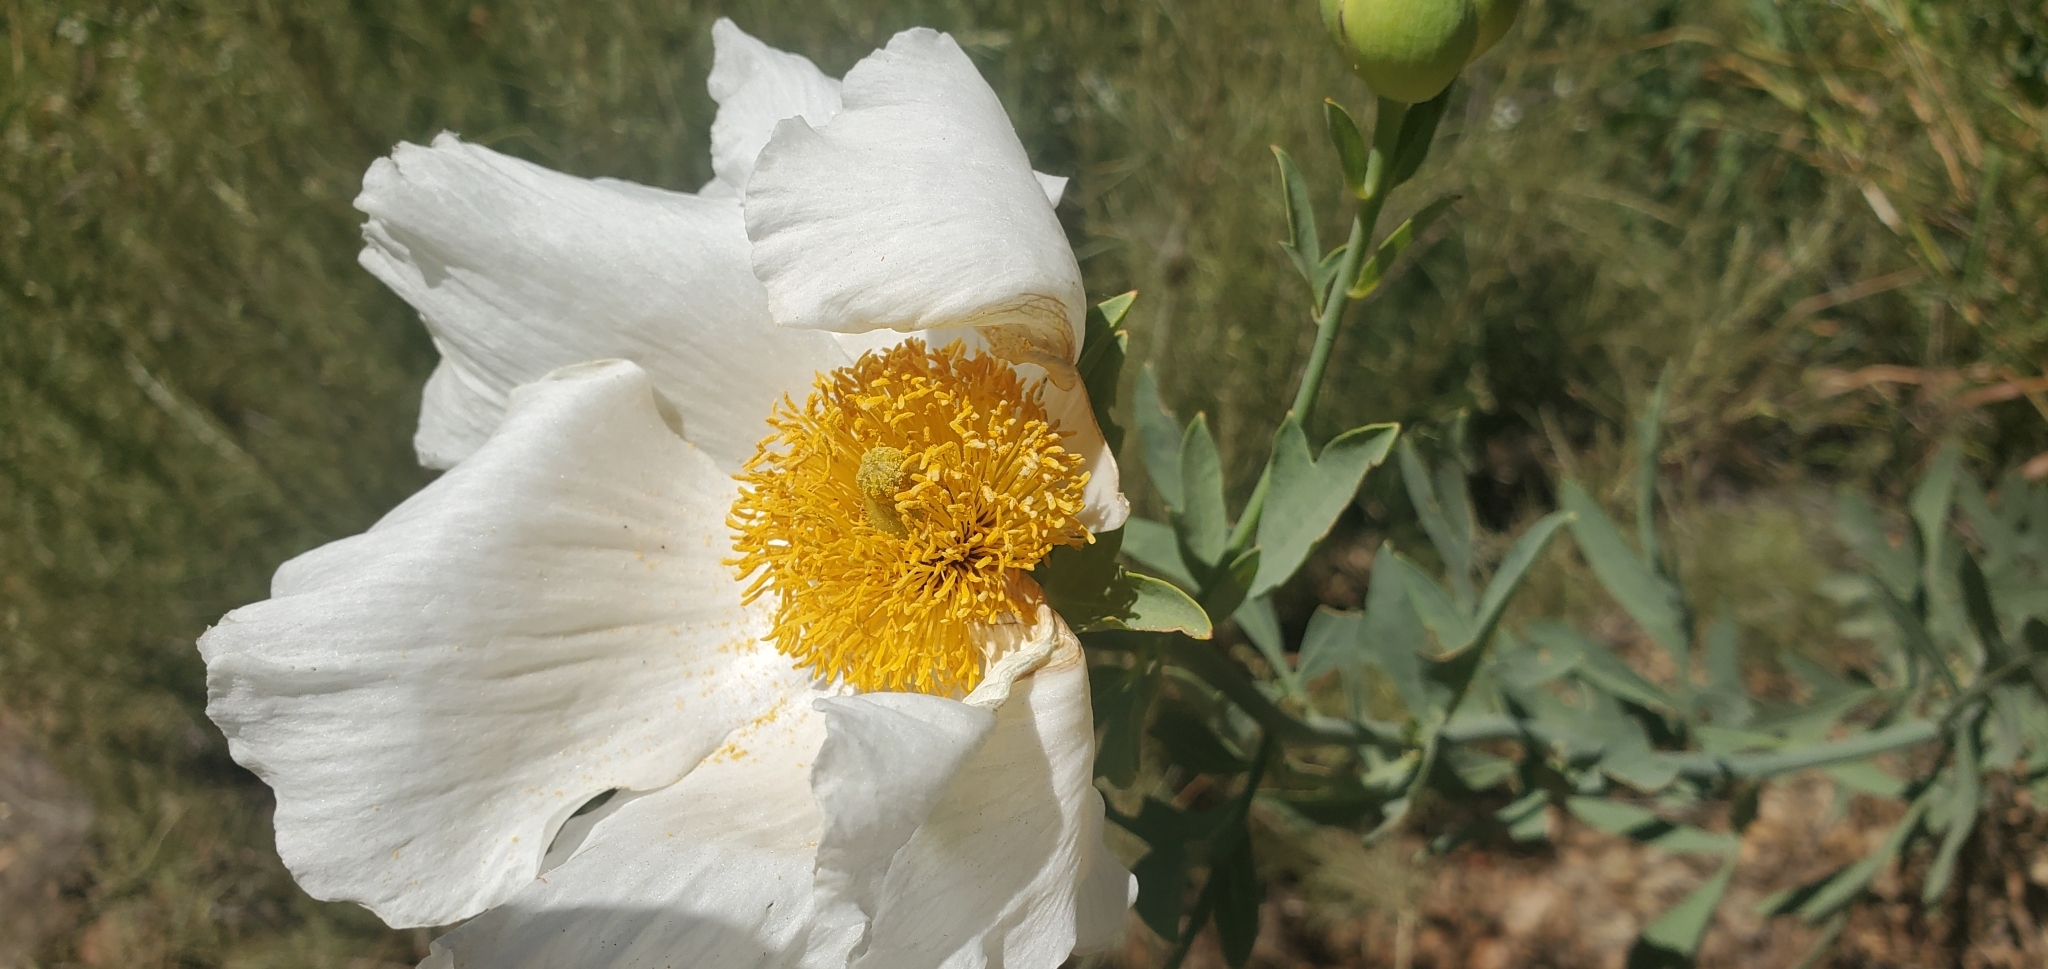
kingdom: Plantae
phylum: Tracheophyta
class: Magnoliopsida
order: Ranunculales
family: Papaveraceae
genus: Romneya
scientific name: Romneya coulteri
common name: California tree-poppy
